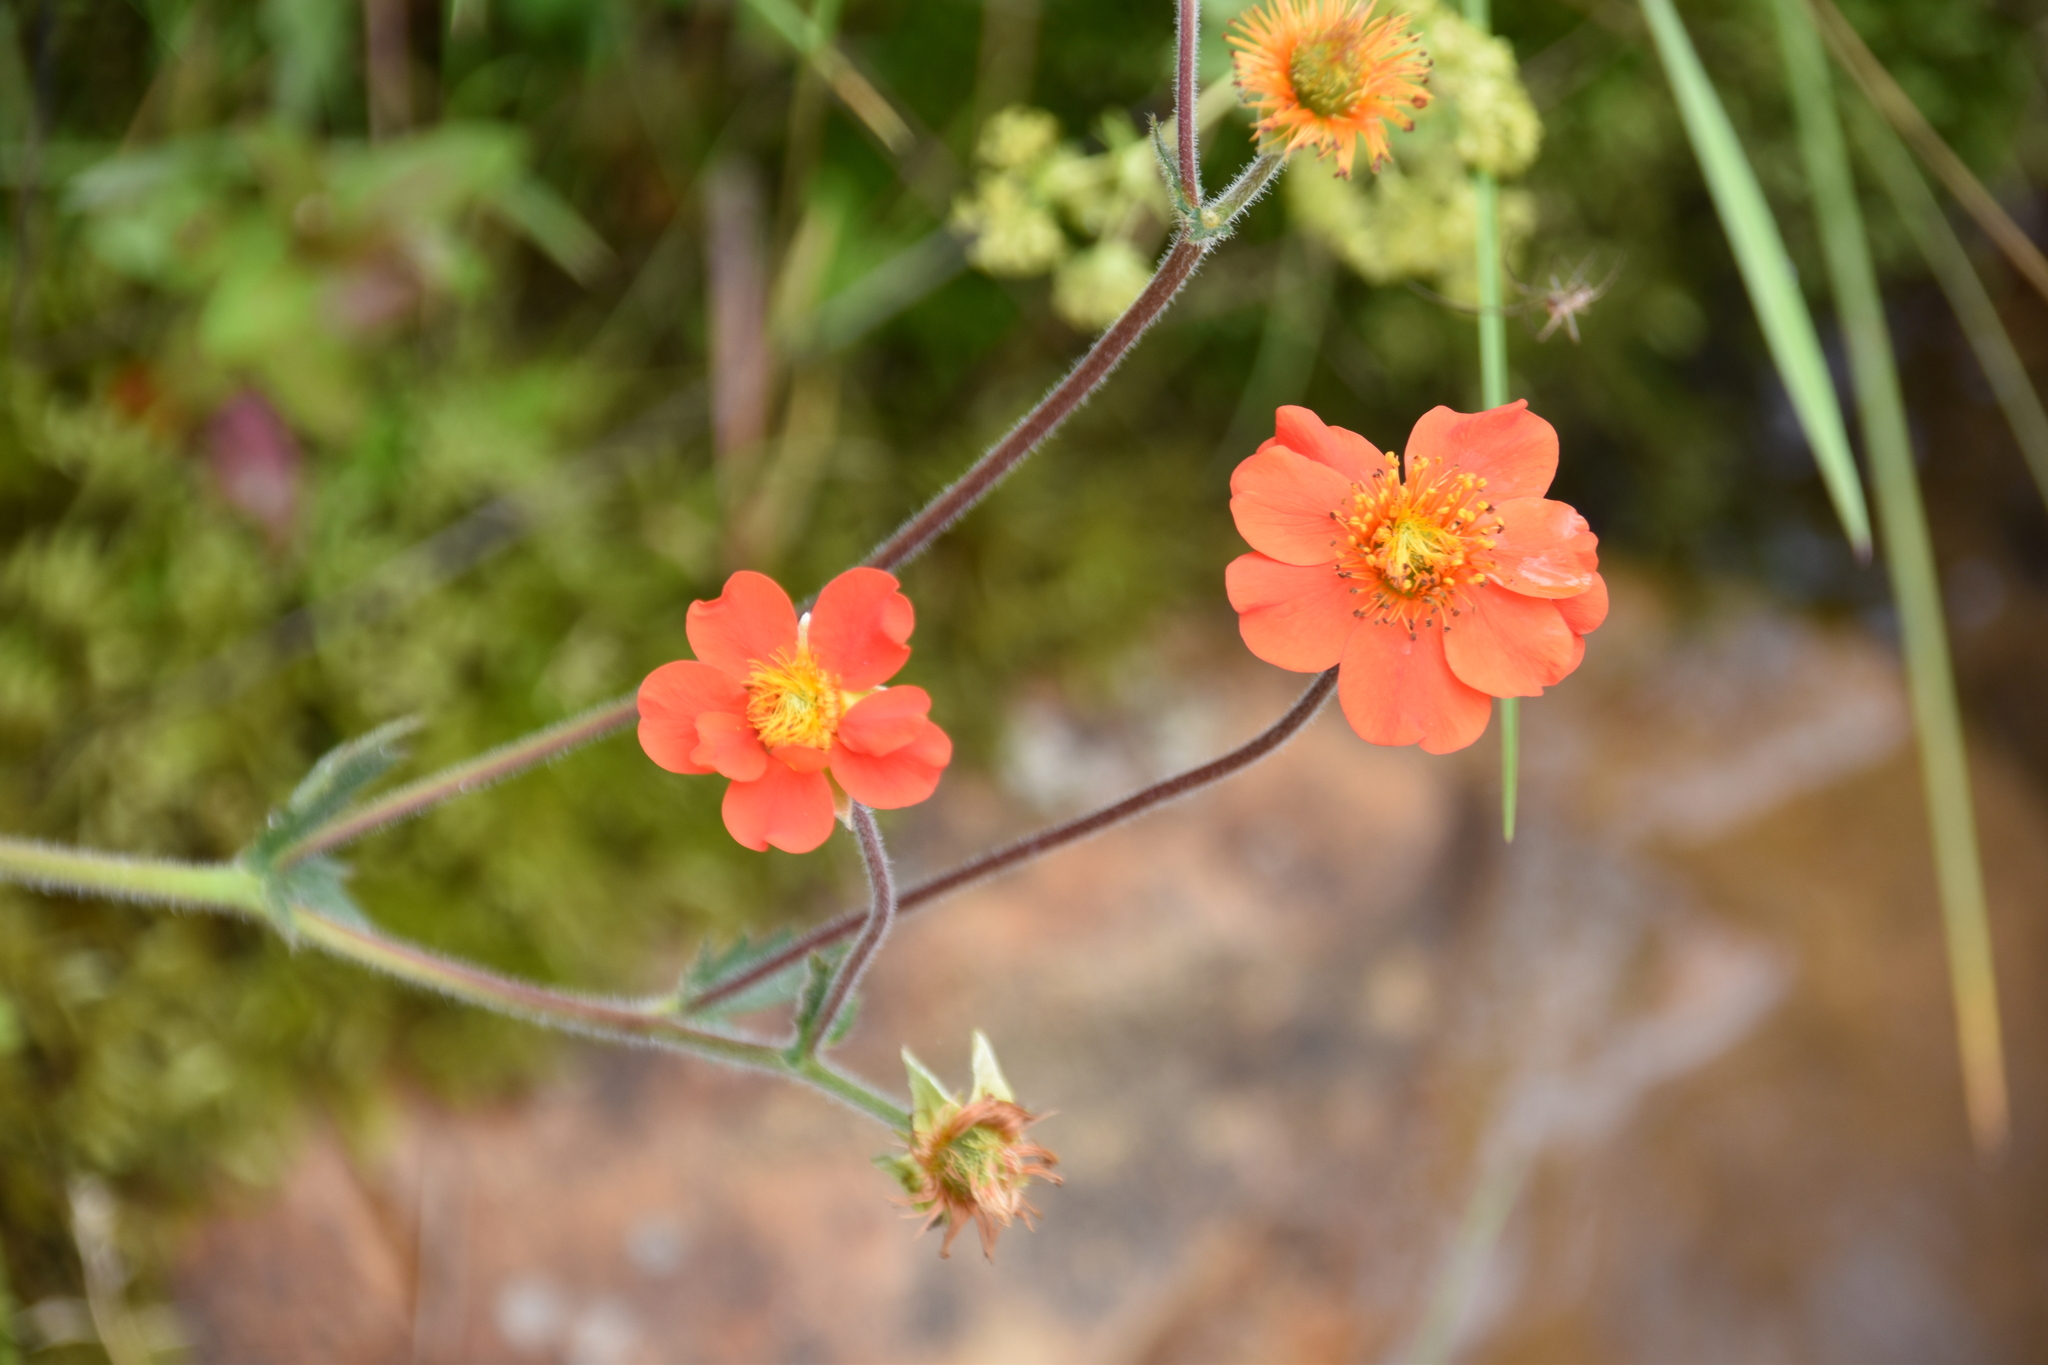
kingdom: Plantae
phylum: Tracheophyta
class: Magnoliopsida
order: Rosales
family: Rosaceae
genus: Geum
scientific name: Geum coccineum
